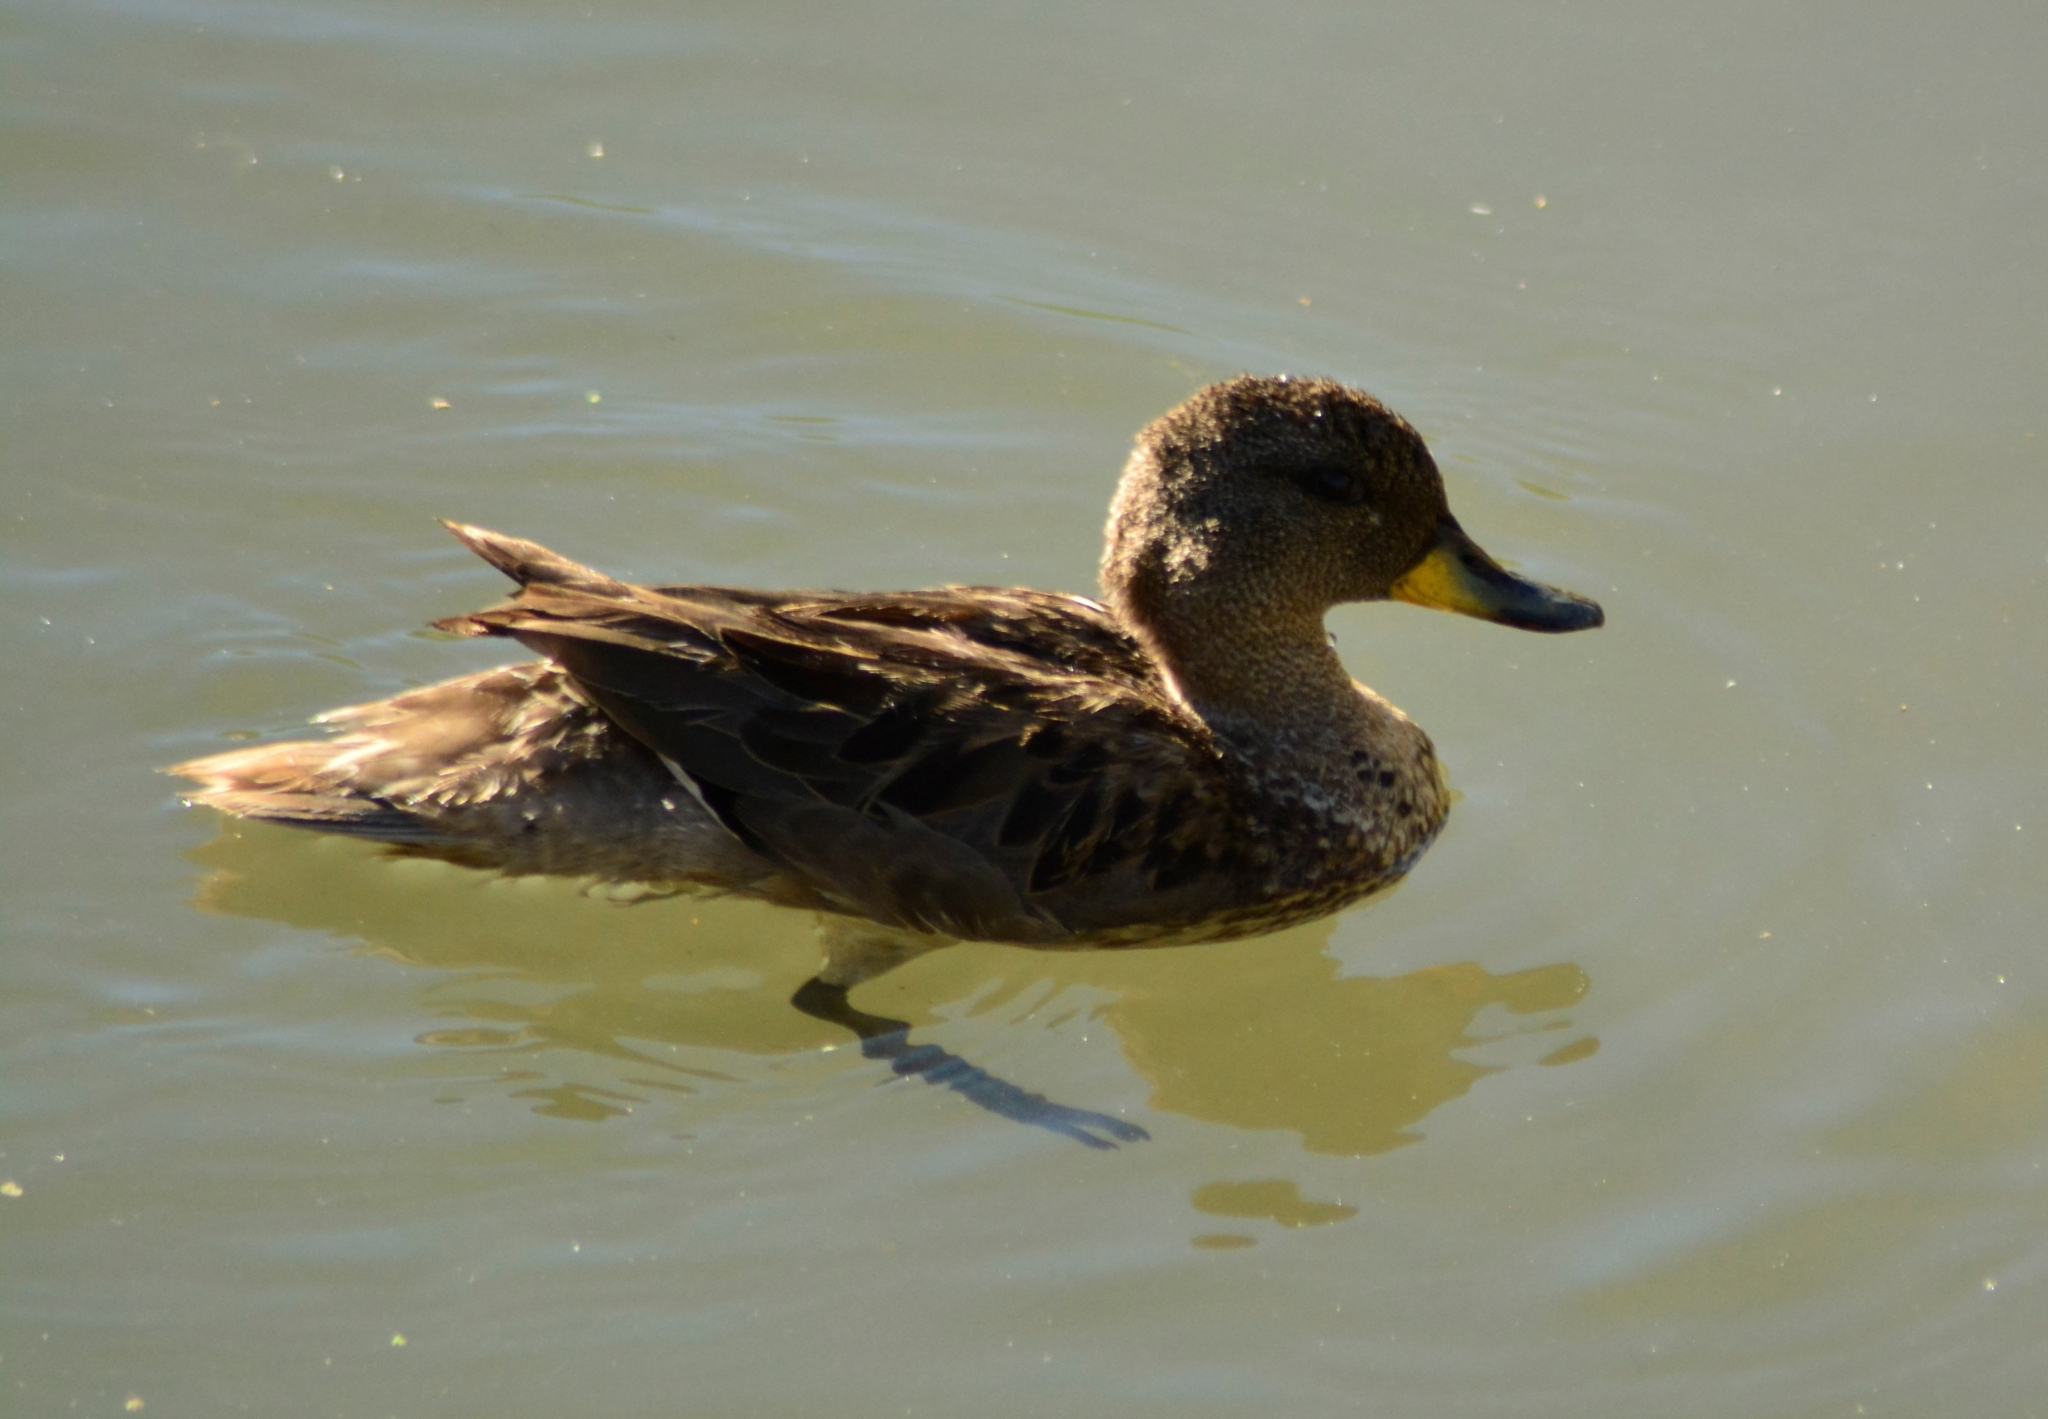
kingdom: Animalia
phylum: Chordata
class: Aves
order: Anseriformes
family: Anatidae
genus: Anas
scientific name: Anas flavirostris
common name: Yellow-billed teal
